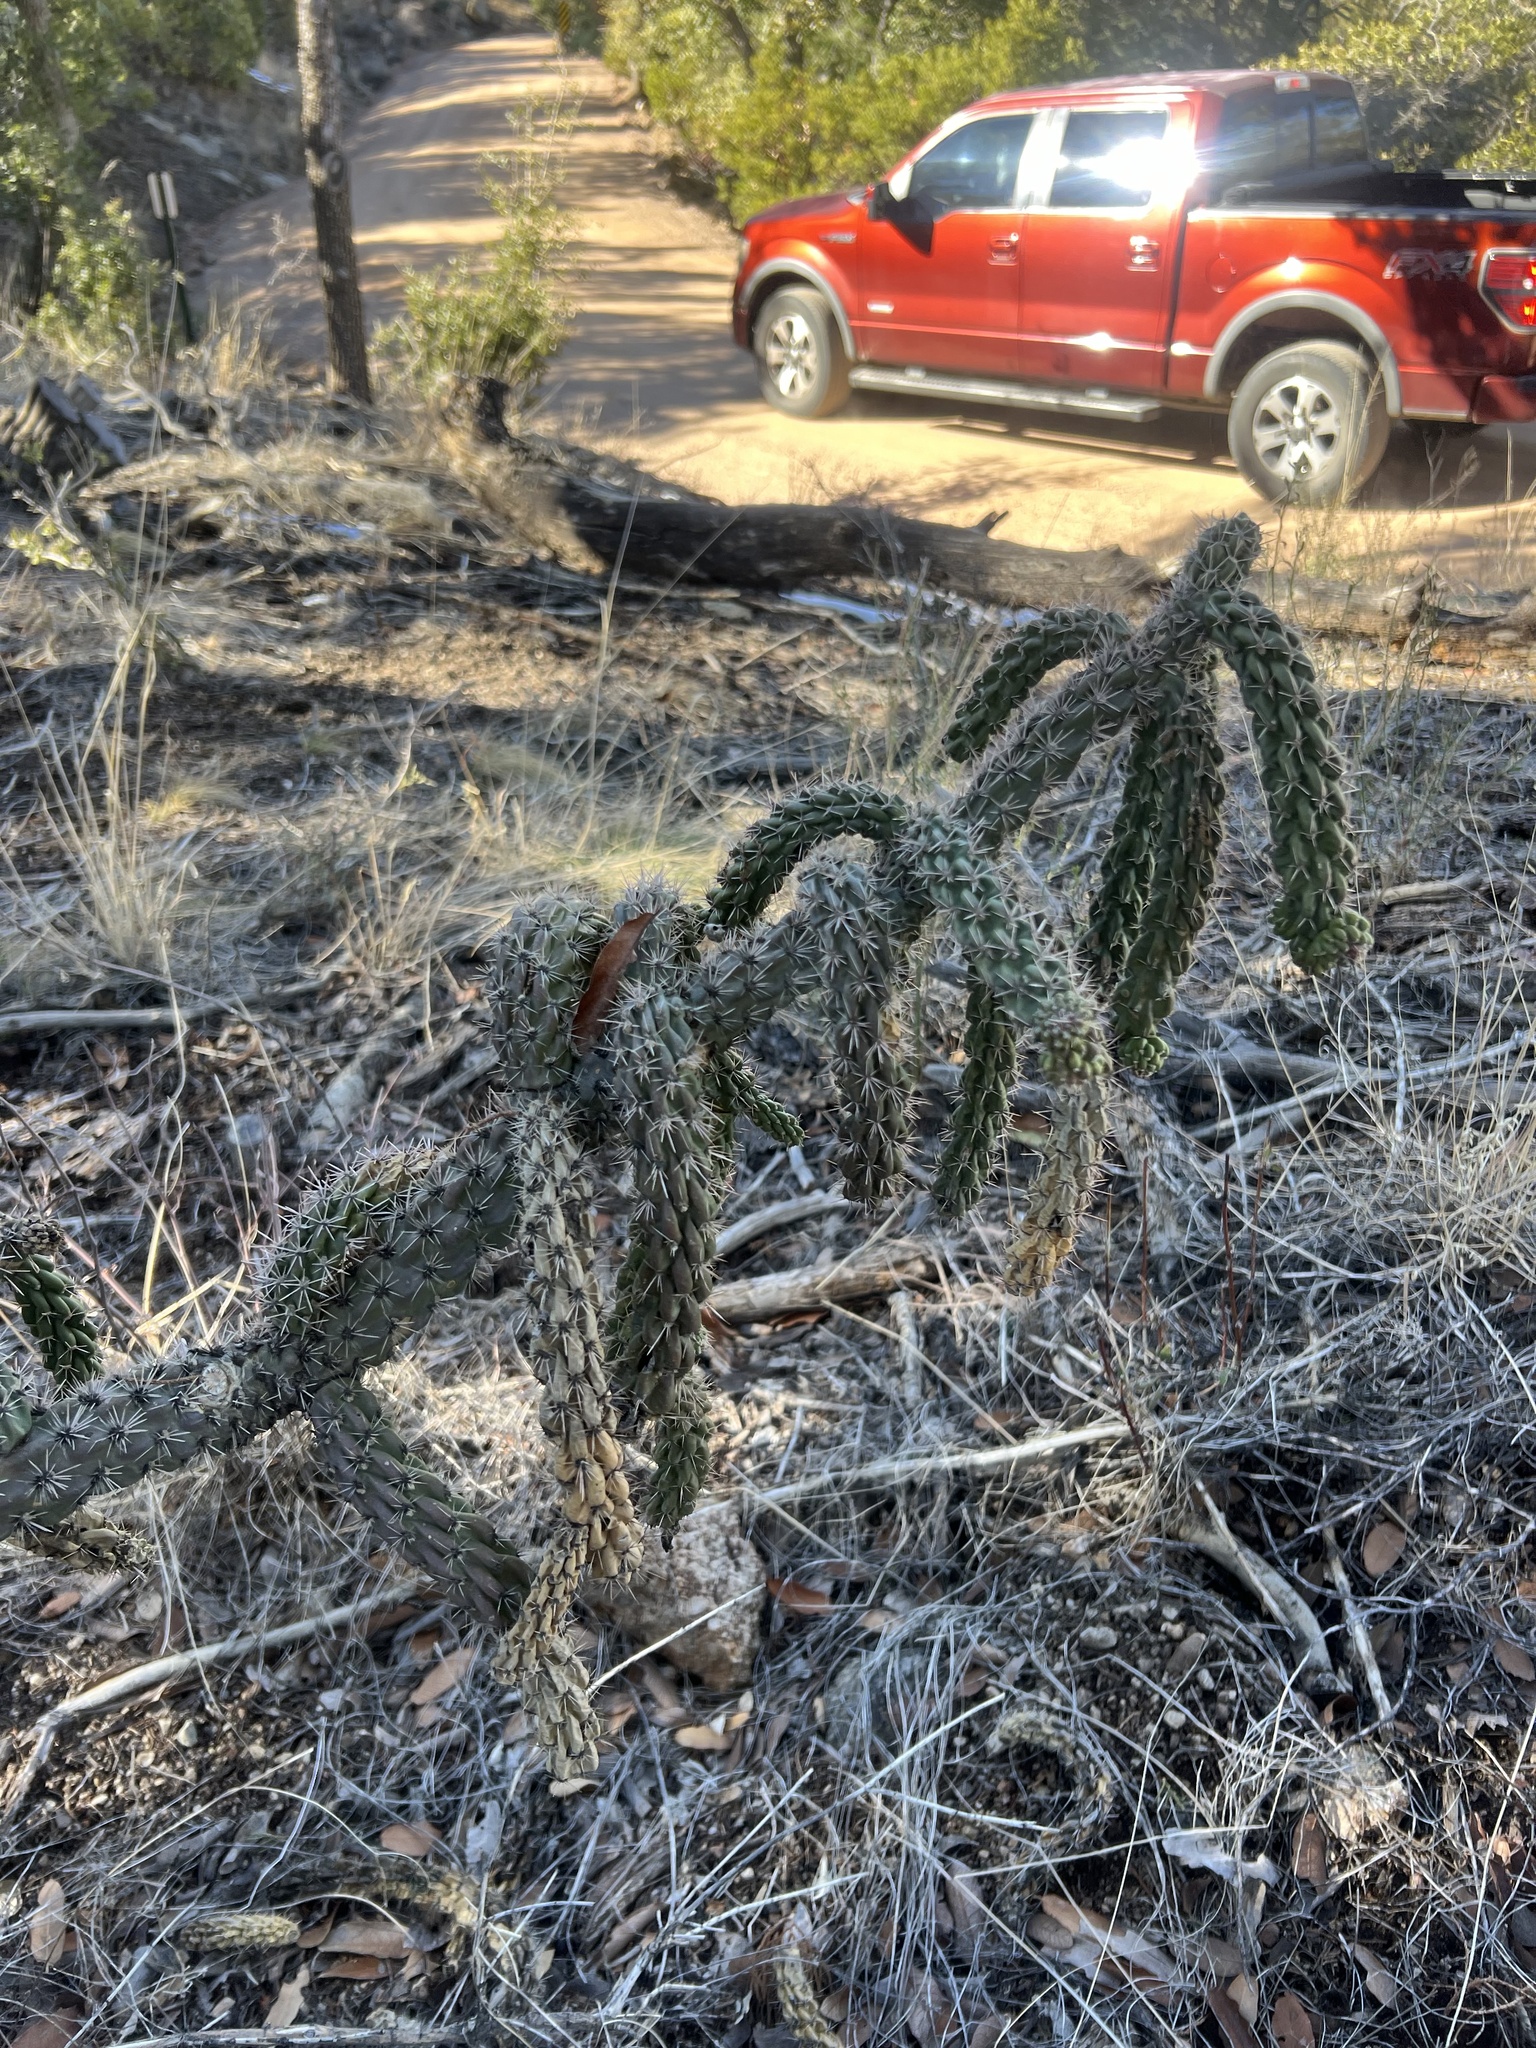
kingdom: Plantae
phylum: Tracheophyta
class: Magnoliopsida
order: Caryophyllales
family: Cactaceae
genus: Cylindropuntia
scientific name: Cylindropuntia imbricata
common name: Candelabrum cactus
